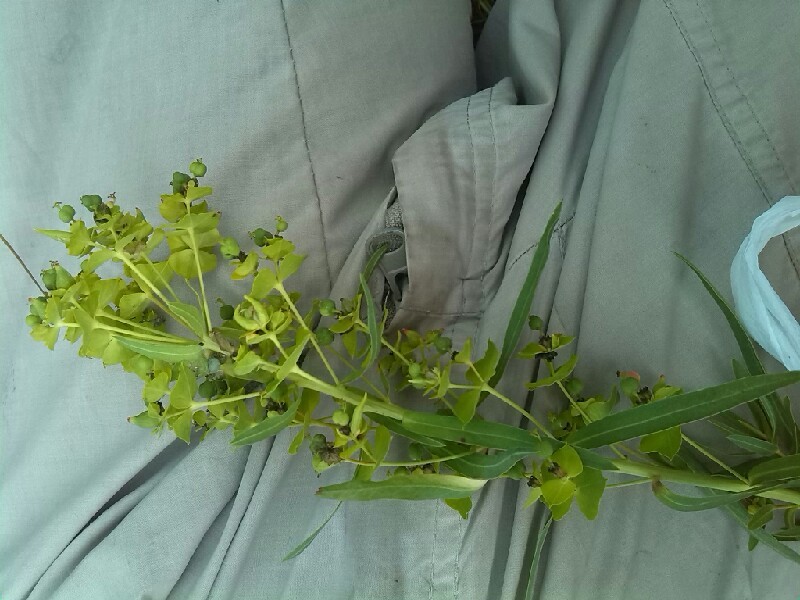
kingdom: Plantae
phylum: Tracheophyta
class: Magnoliopsida
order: Malpighiales
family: Euphorbiaceae
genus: Euphorbia
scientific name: Euphorbia saratoi
